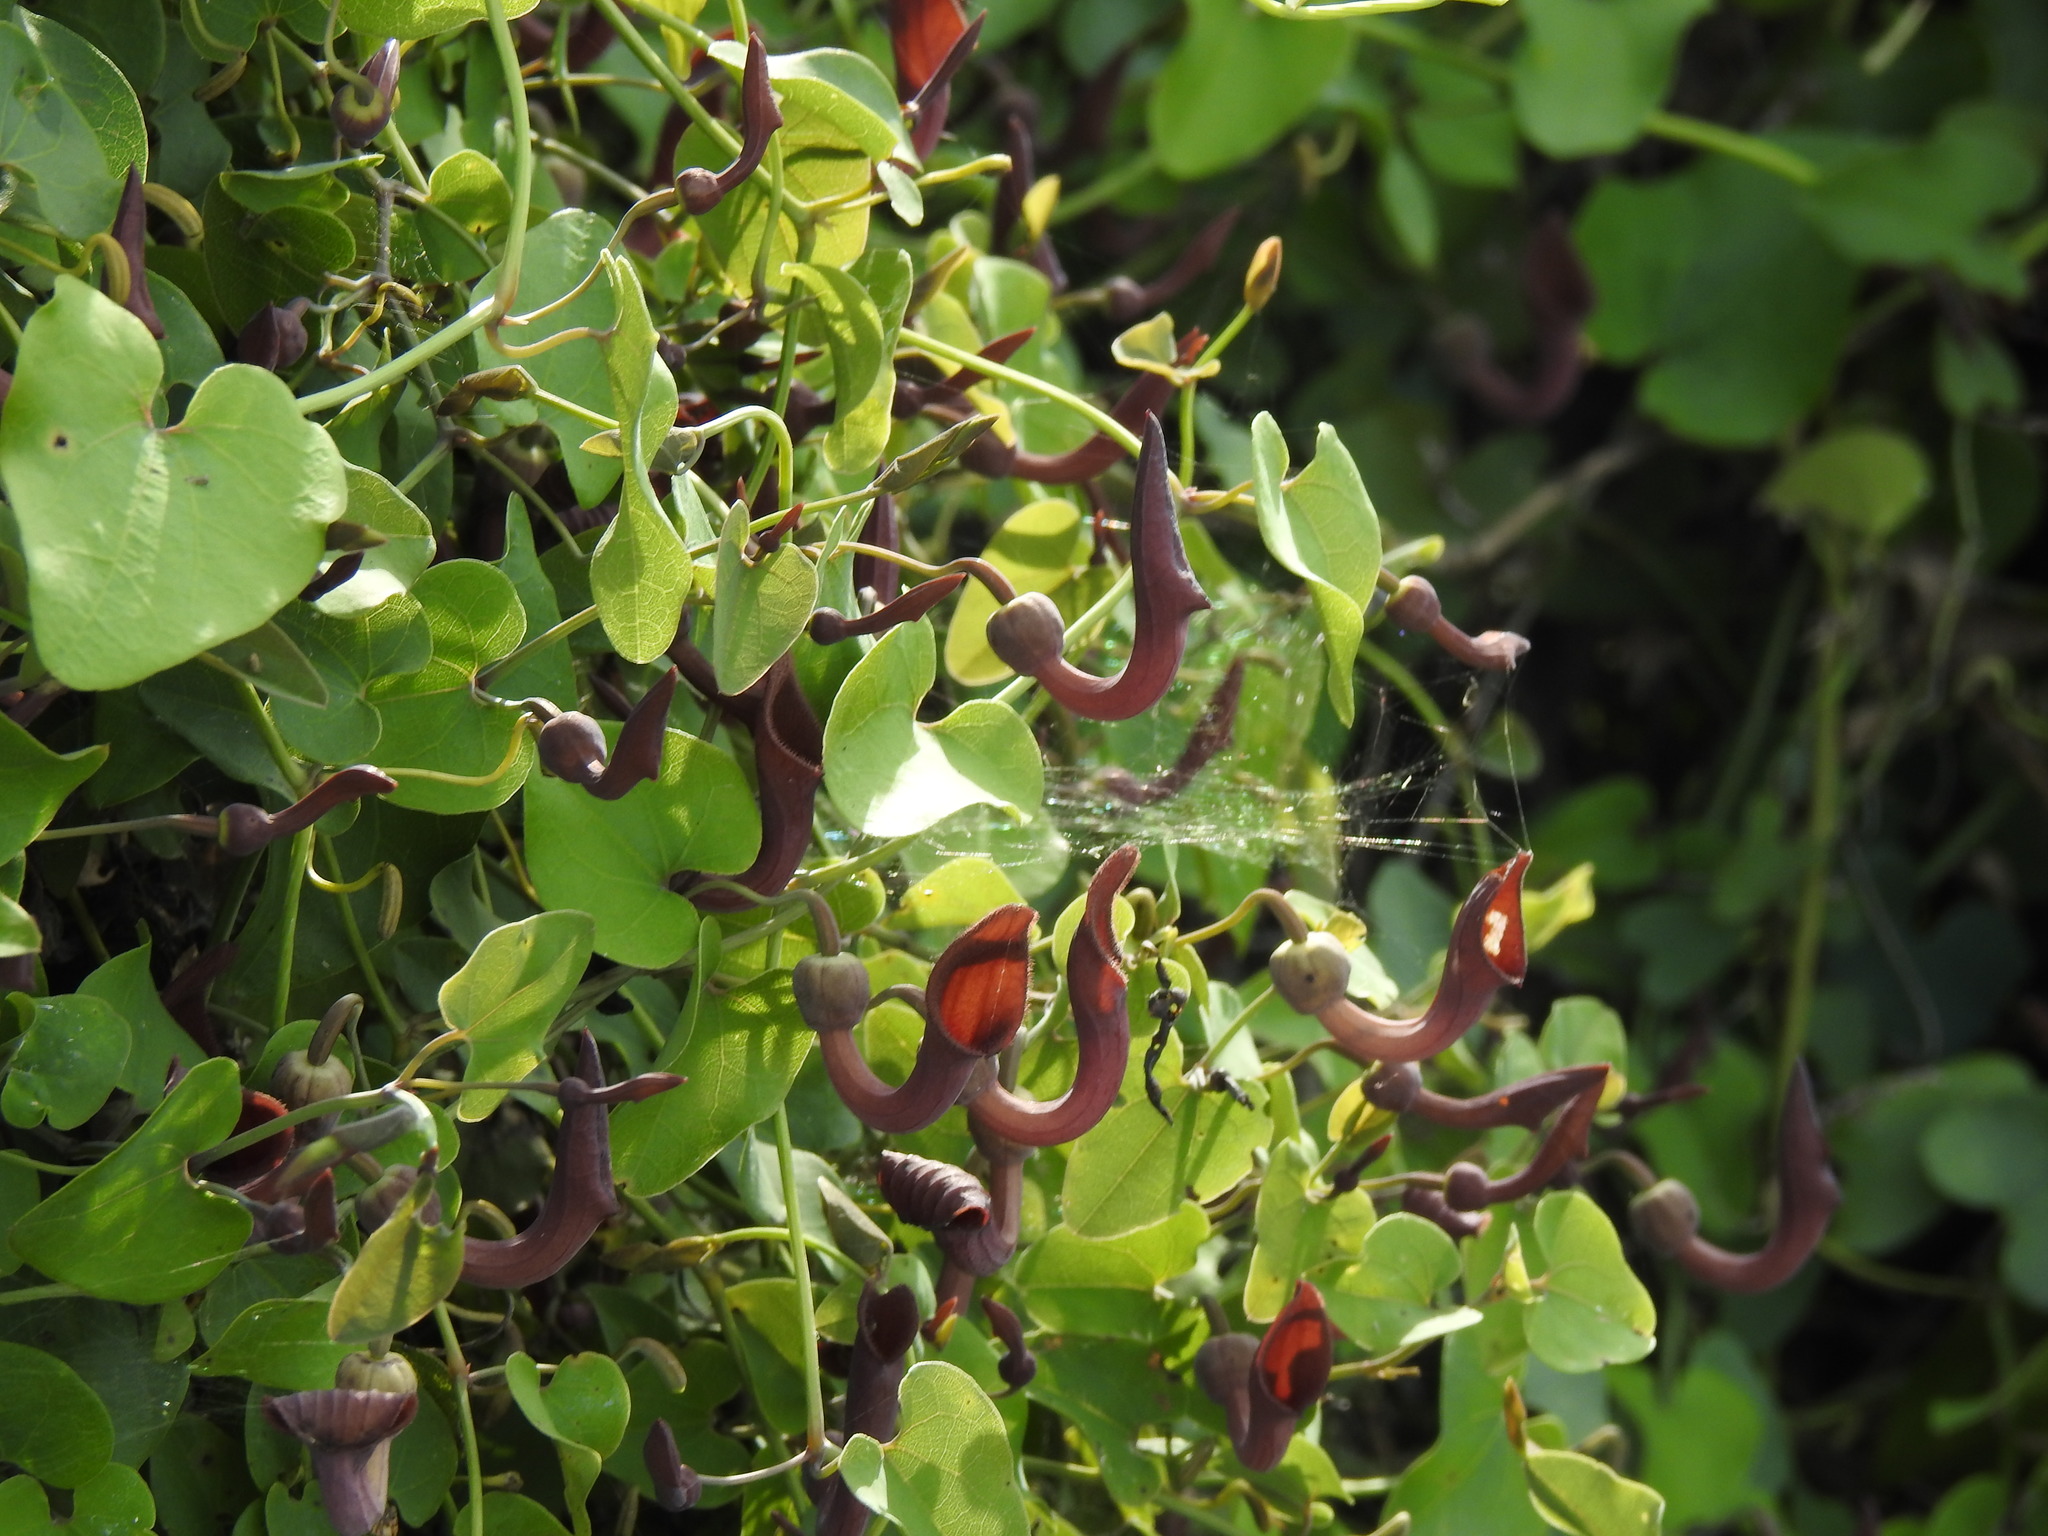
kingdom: Plantae
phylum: Tracheophyta
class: Magnoliopsida
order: Piperales
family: Aristolochiaceae
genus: Aristolochia
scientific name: Aristolochia baetica
